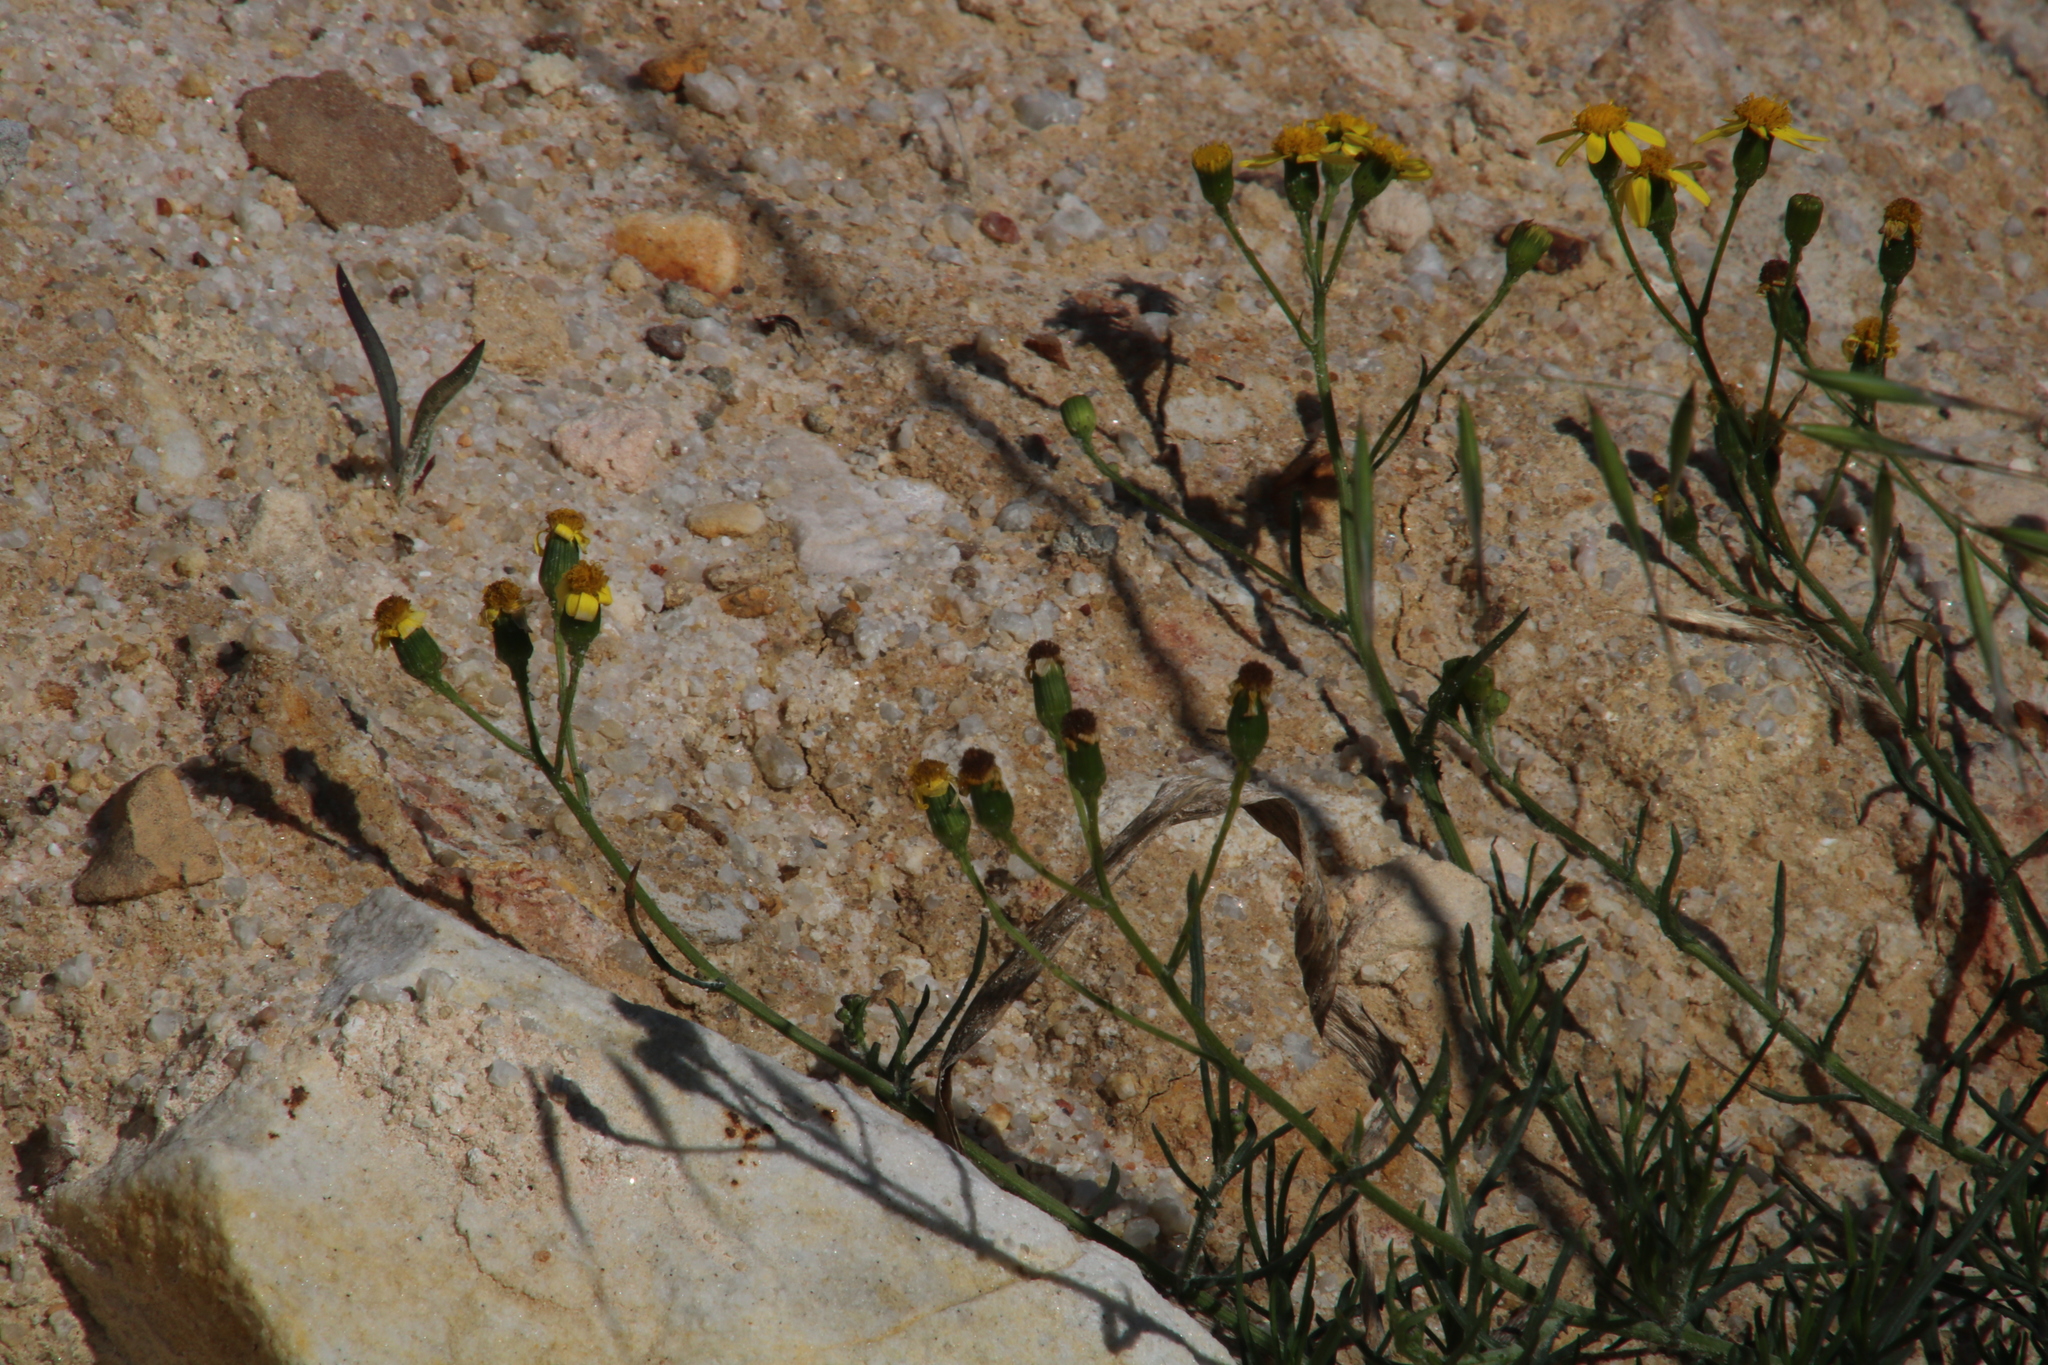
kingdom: Plantae
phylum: Tracheophyta
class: Magnoliopsida
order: Asterales
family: Asteraceae
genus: Senecio
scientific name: Senecio burchellii
